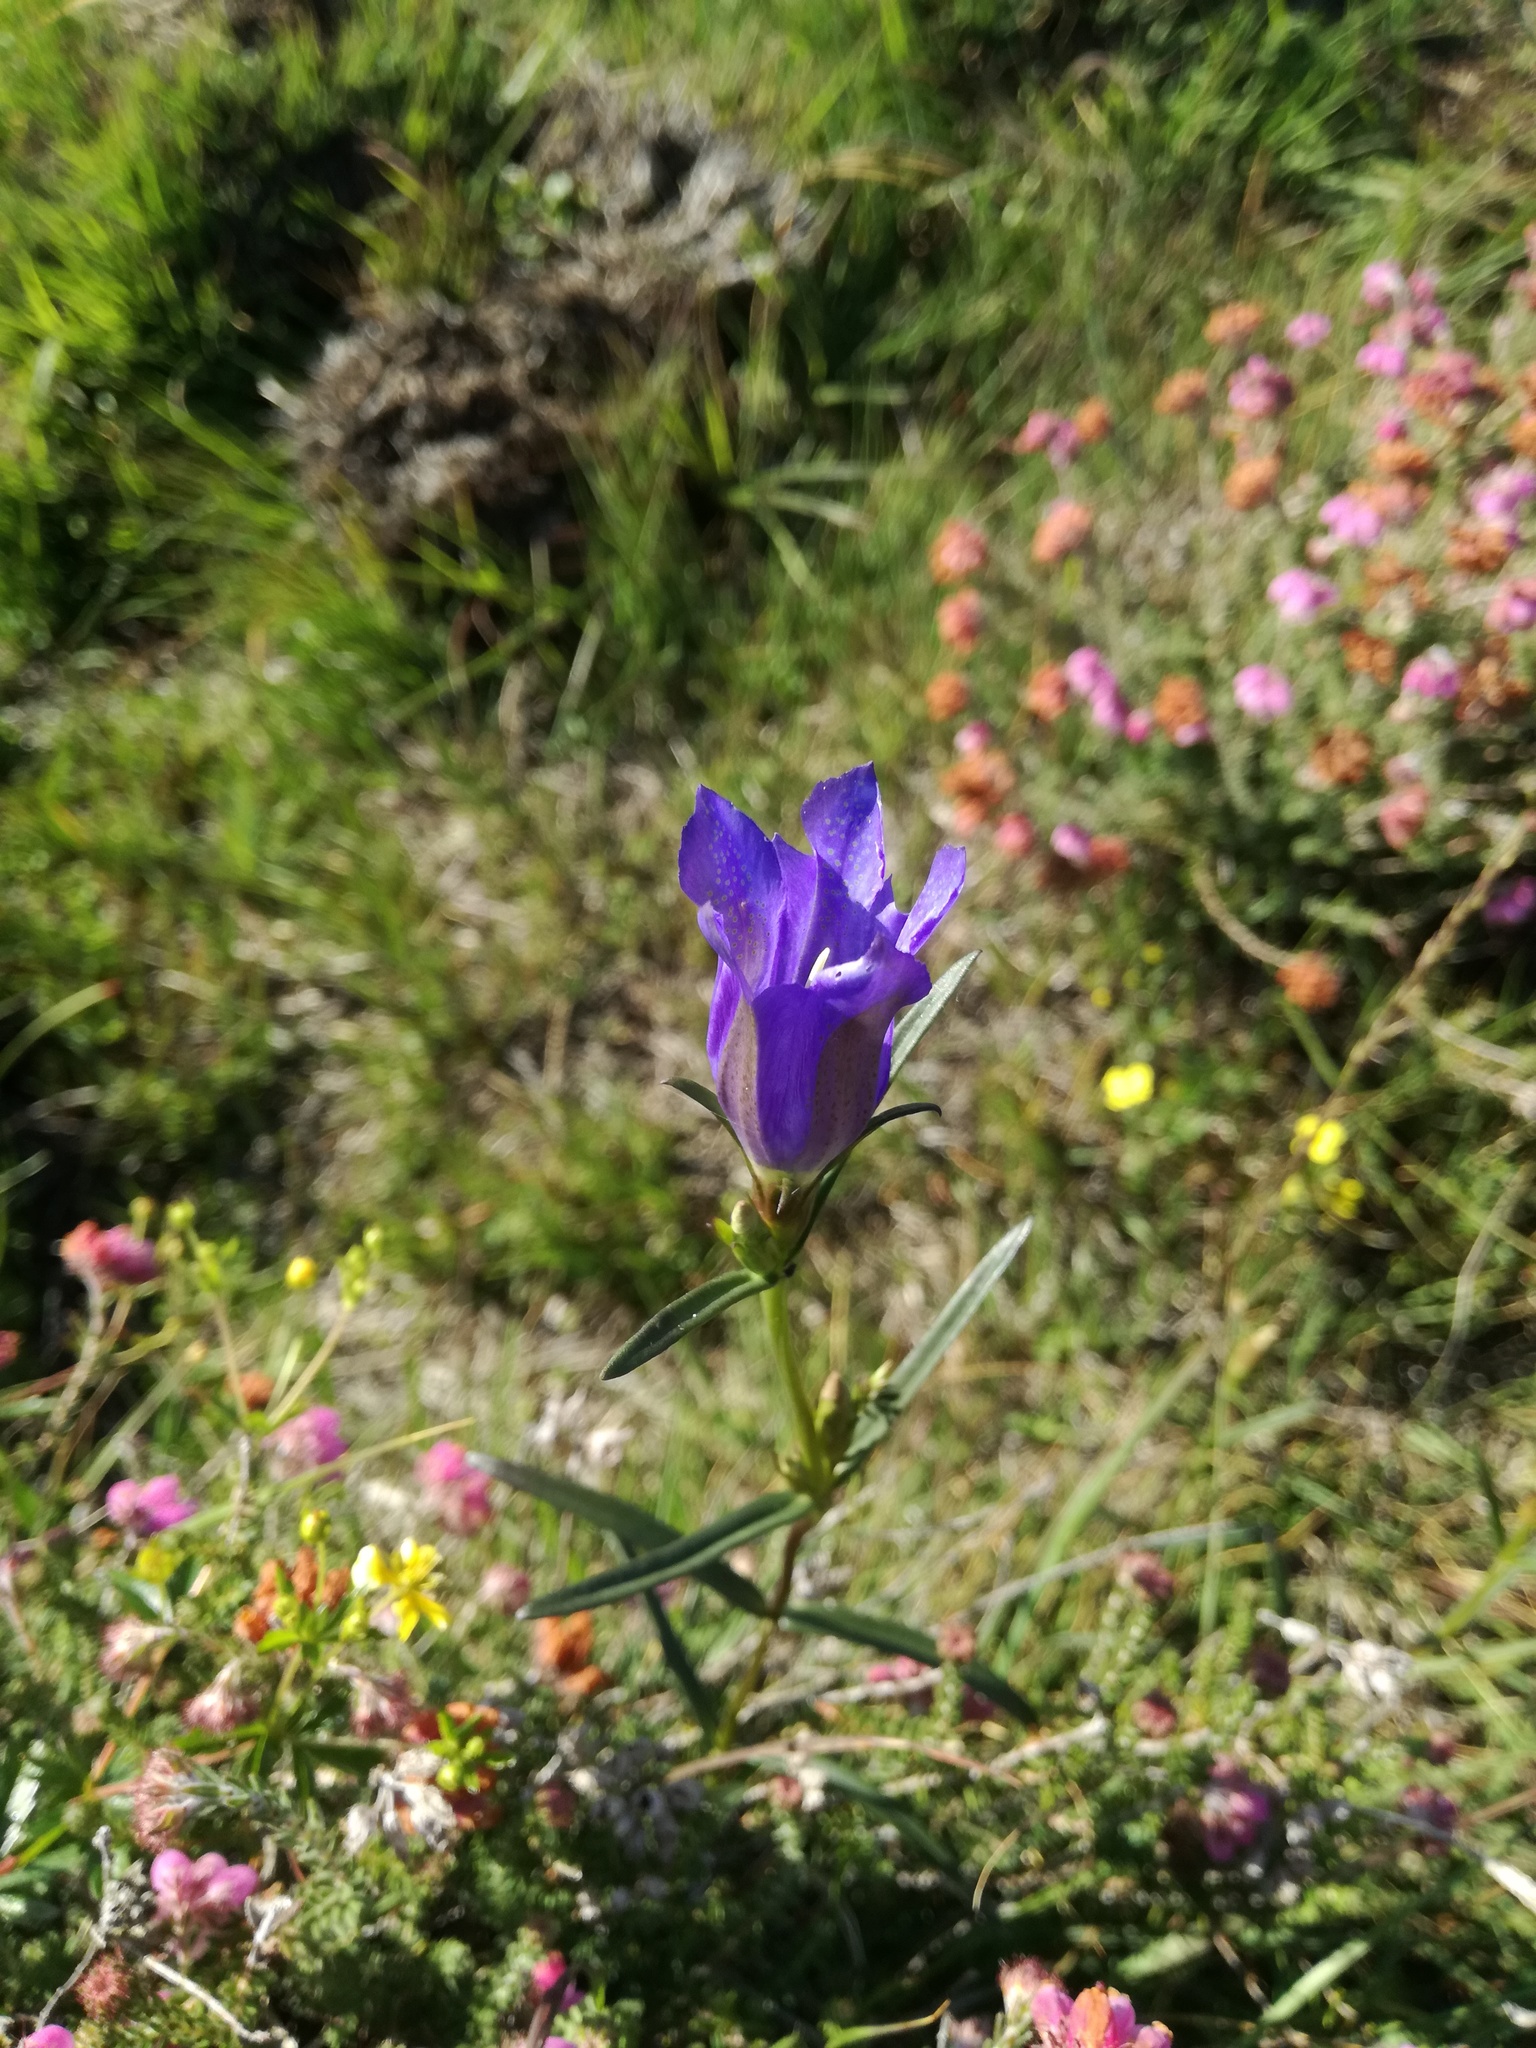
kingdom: Plantae
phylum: Tracheophyta
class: Magnoliopsida
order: Gentianales
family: Gentianaceae
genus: Gentiana
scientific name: Gentiana pneumonanthe
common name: Marsh gentian
